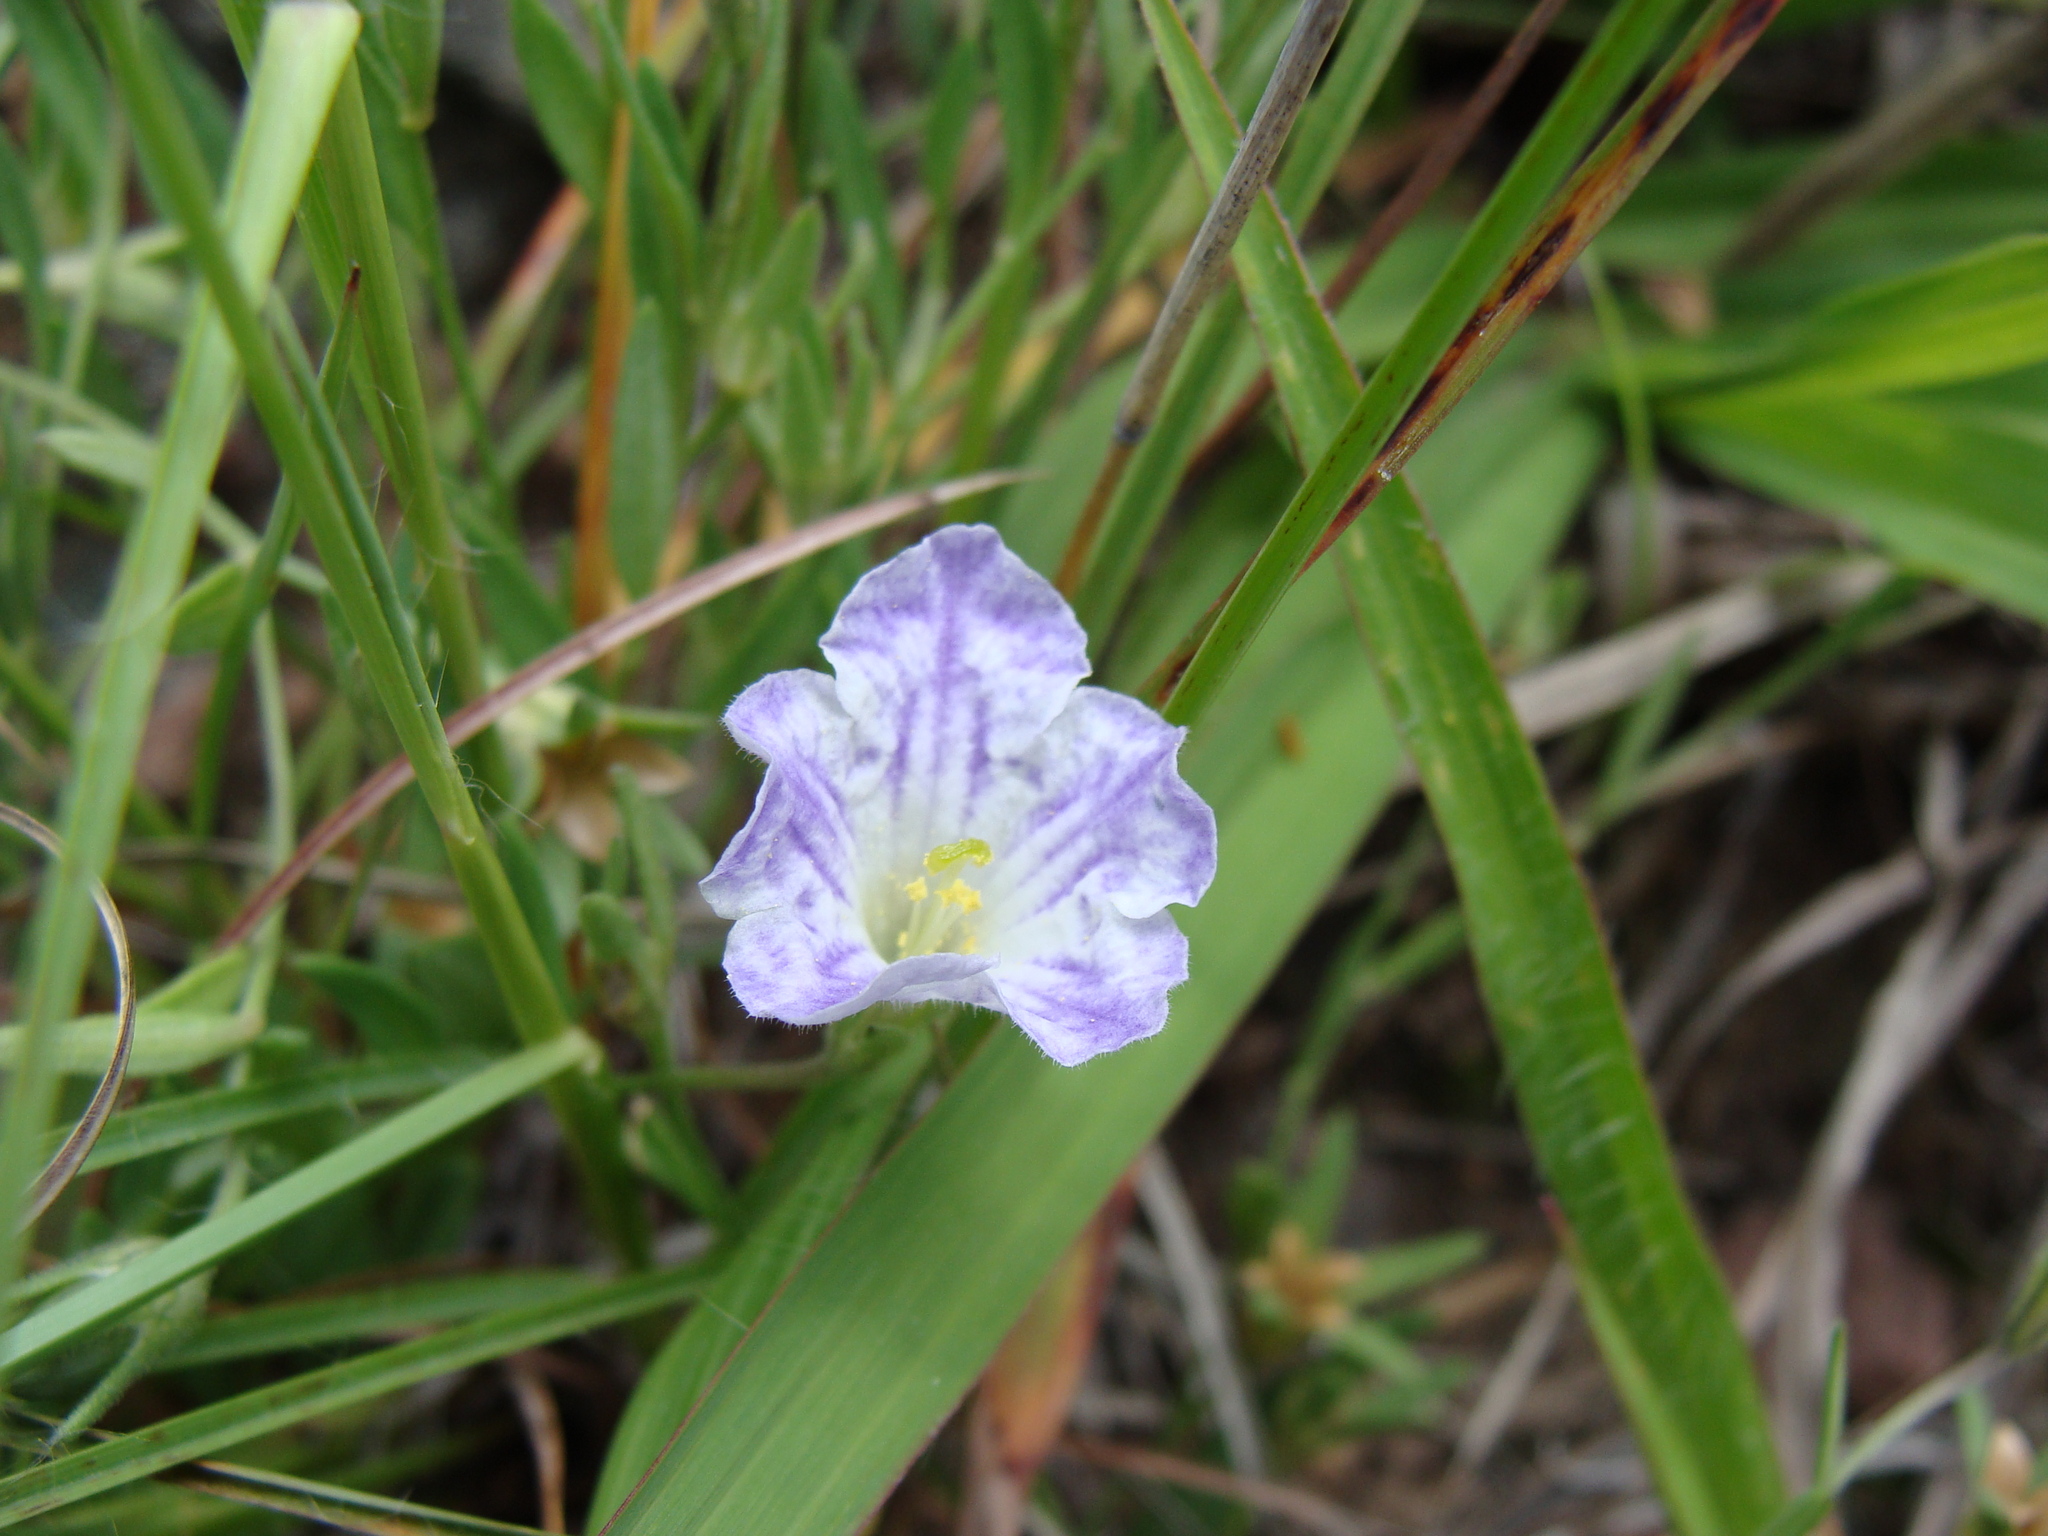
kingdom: Plantae
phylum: Tracheophyta
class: Magnoliopsida
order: Solanales
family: Solanaceae
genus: Salpiglossis
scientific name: Salpiglossis erecta
